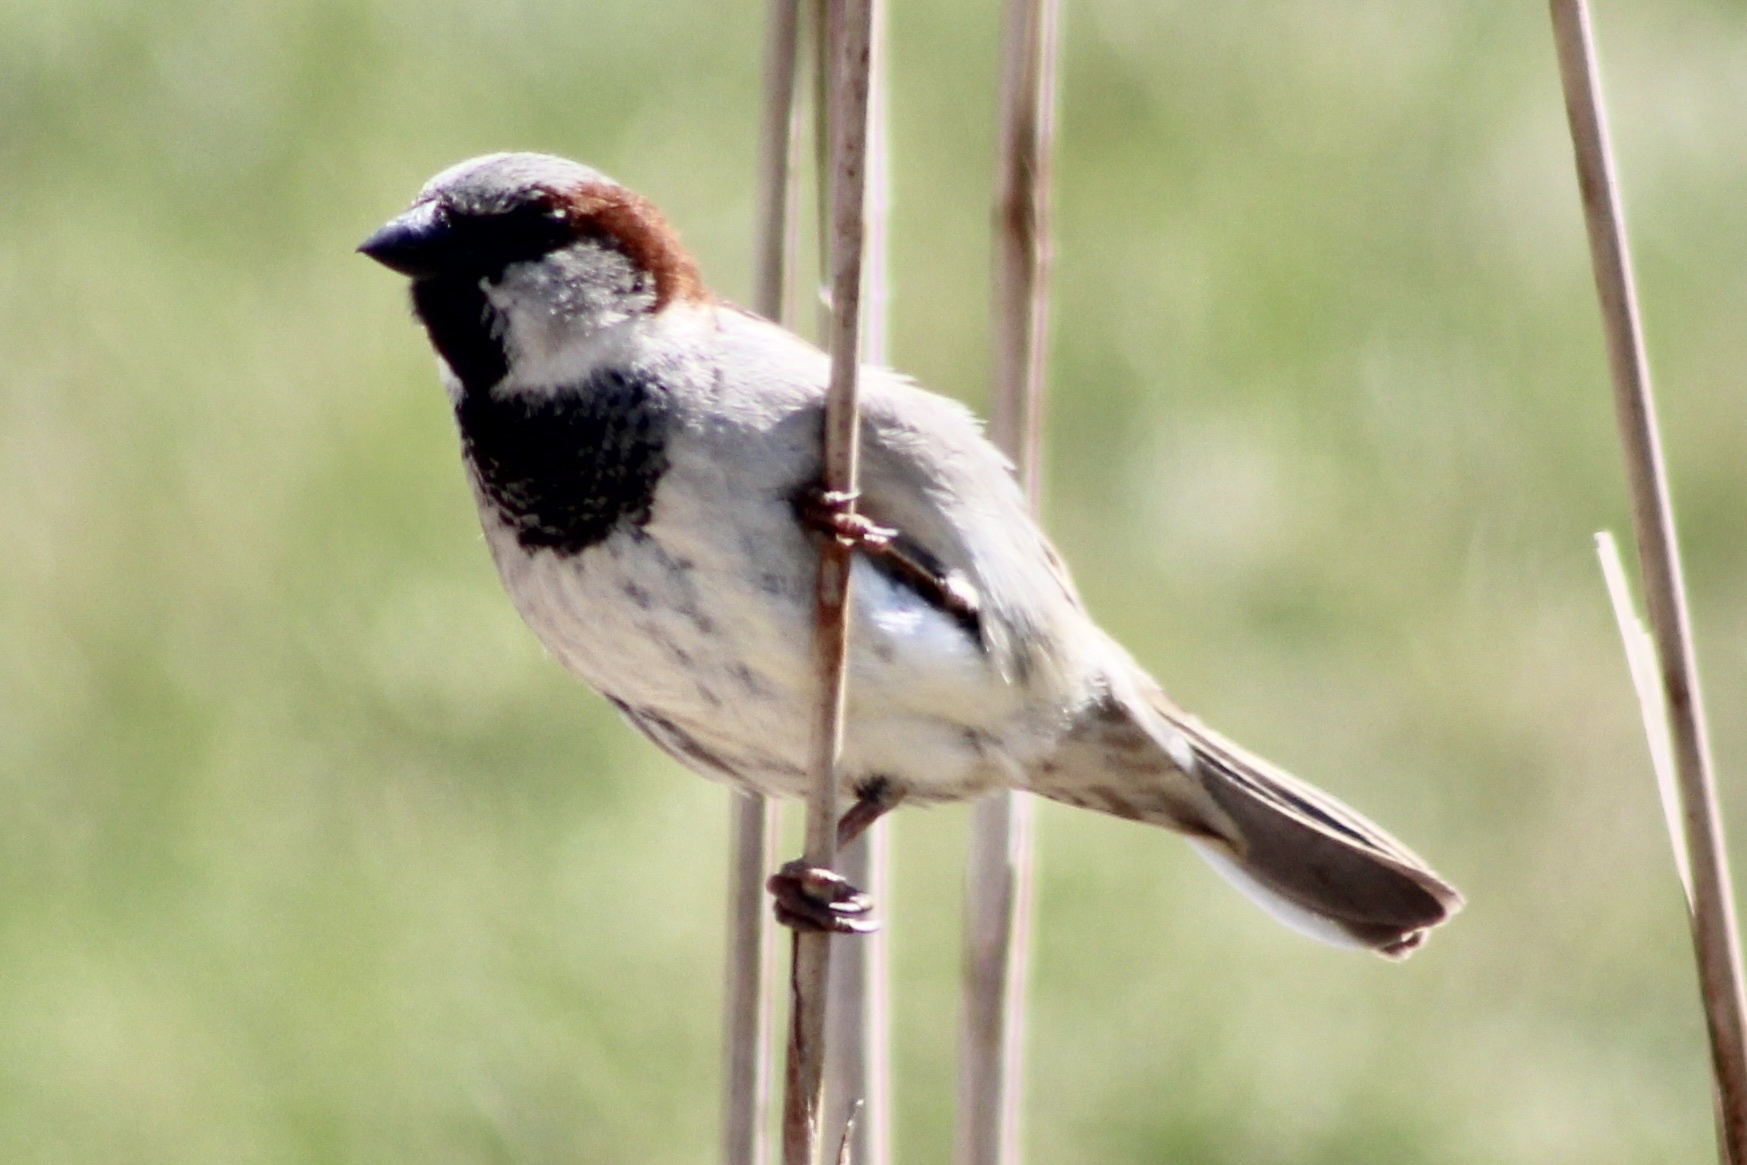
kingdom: Animalia
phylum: Chordata
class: Aves
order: Passeriformes
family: Passeridae
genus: Passer
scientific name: Passer domesticus
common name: House sparrow
